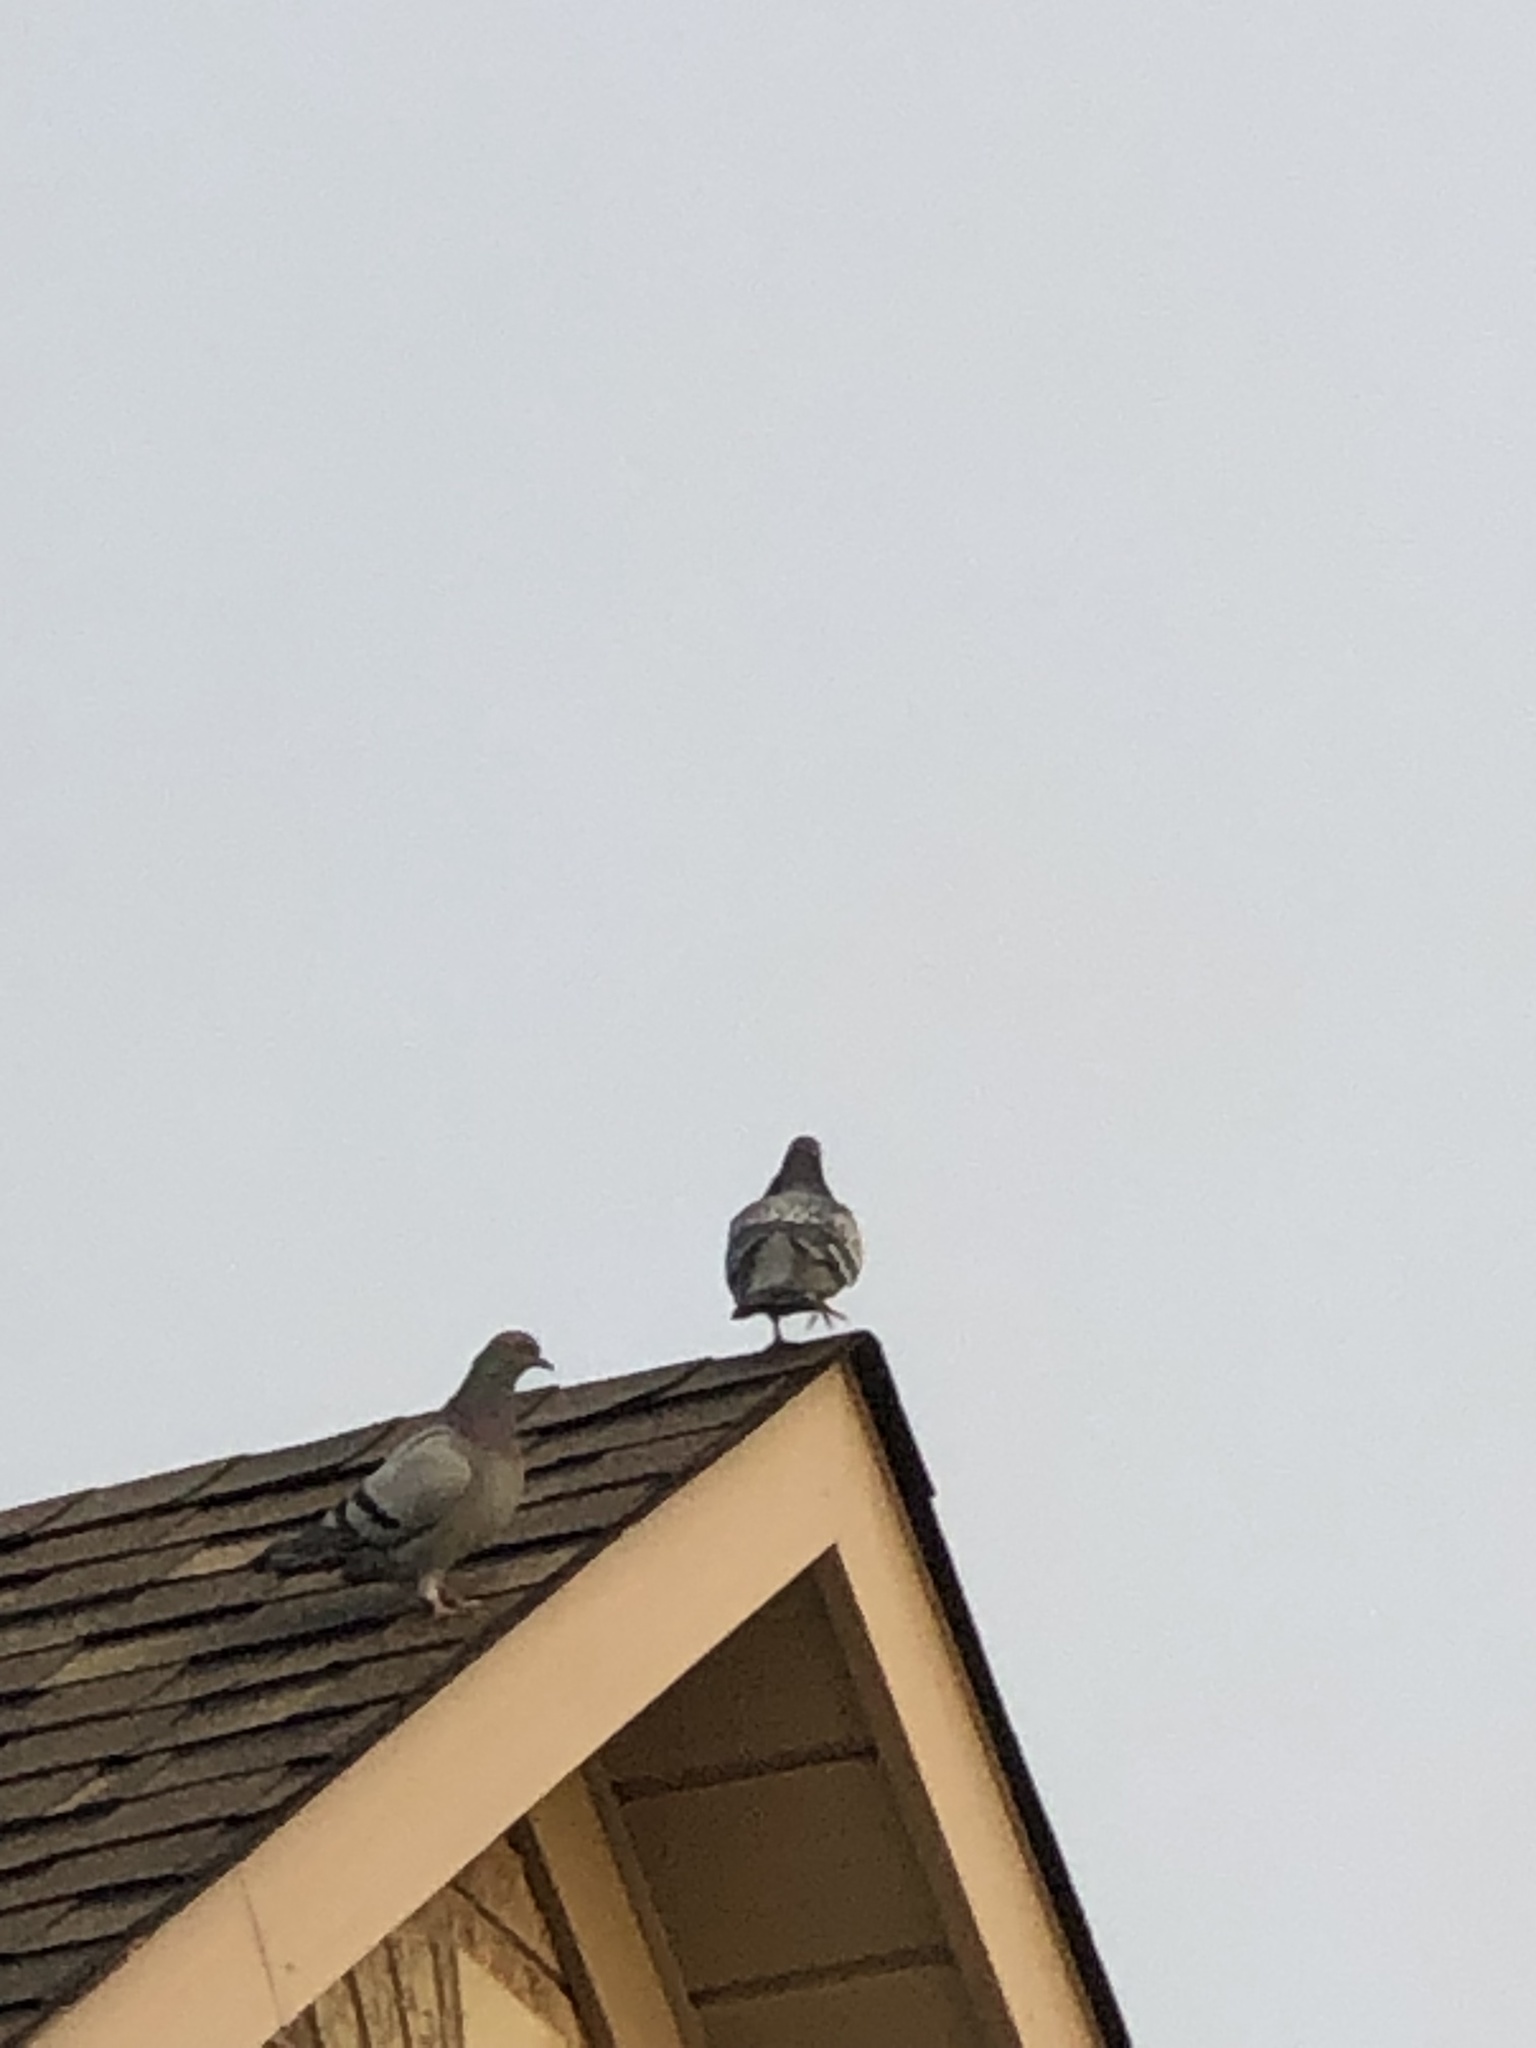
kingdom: Animalia
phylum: Chordata
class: Aves
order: Columbiformes
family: Columbidae
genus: Columba
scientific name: Columba livia
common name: Rock pigeon
